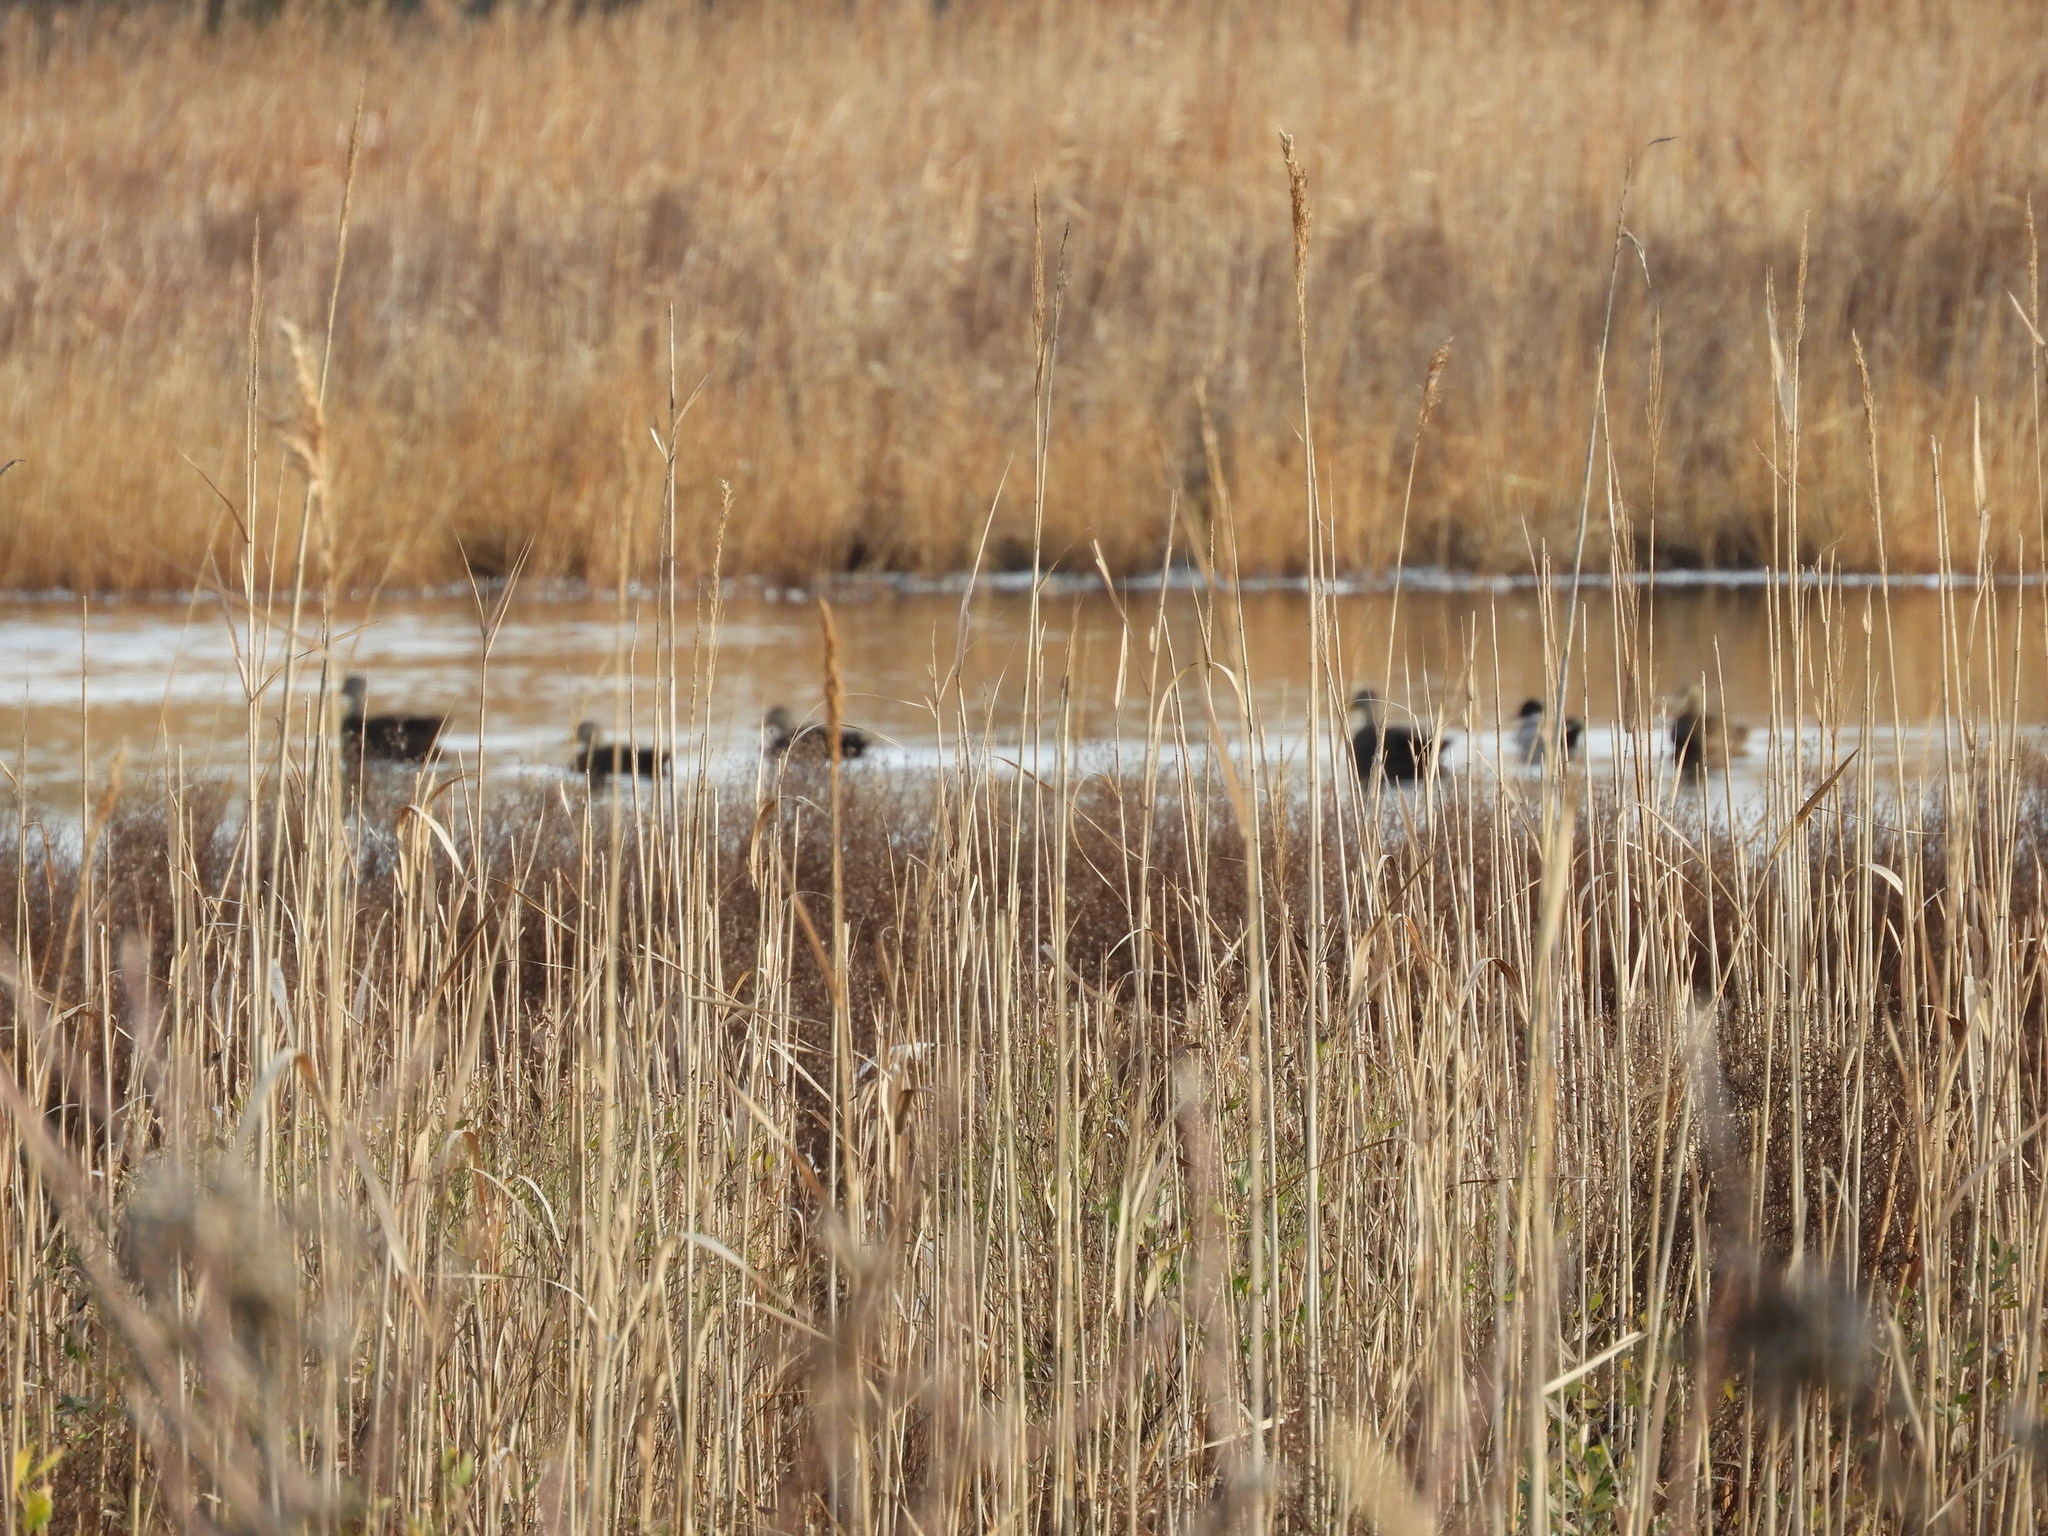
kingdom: Animalia
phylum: Chordata
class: Aves
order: Anseriformes
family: Anatidae
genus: Anas
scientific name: Anas rubripes
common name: American black duck
